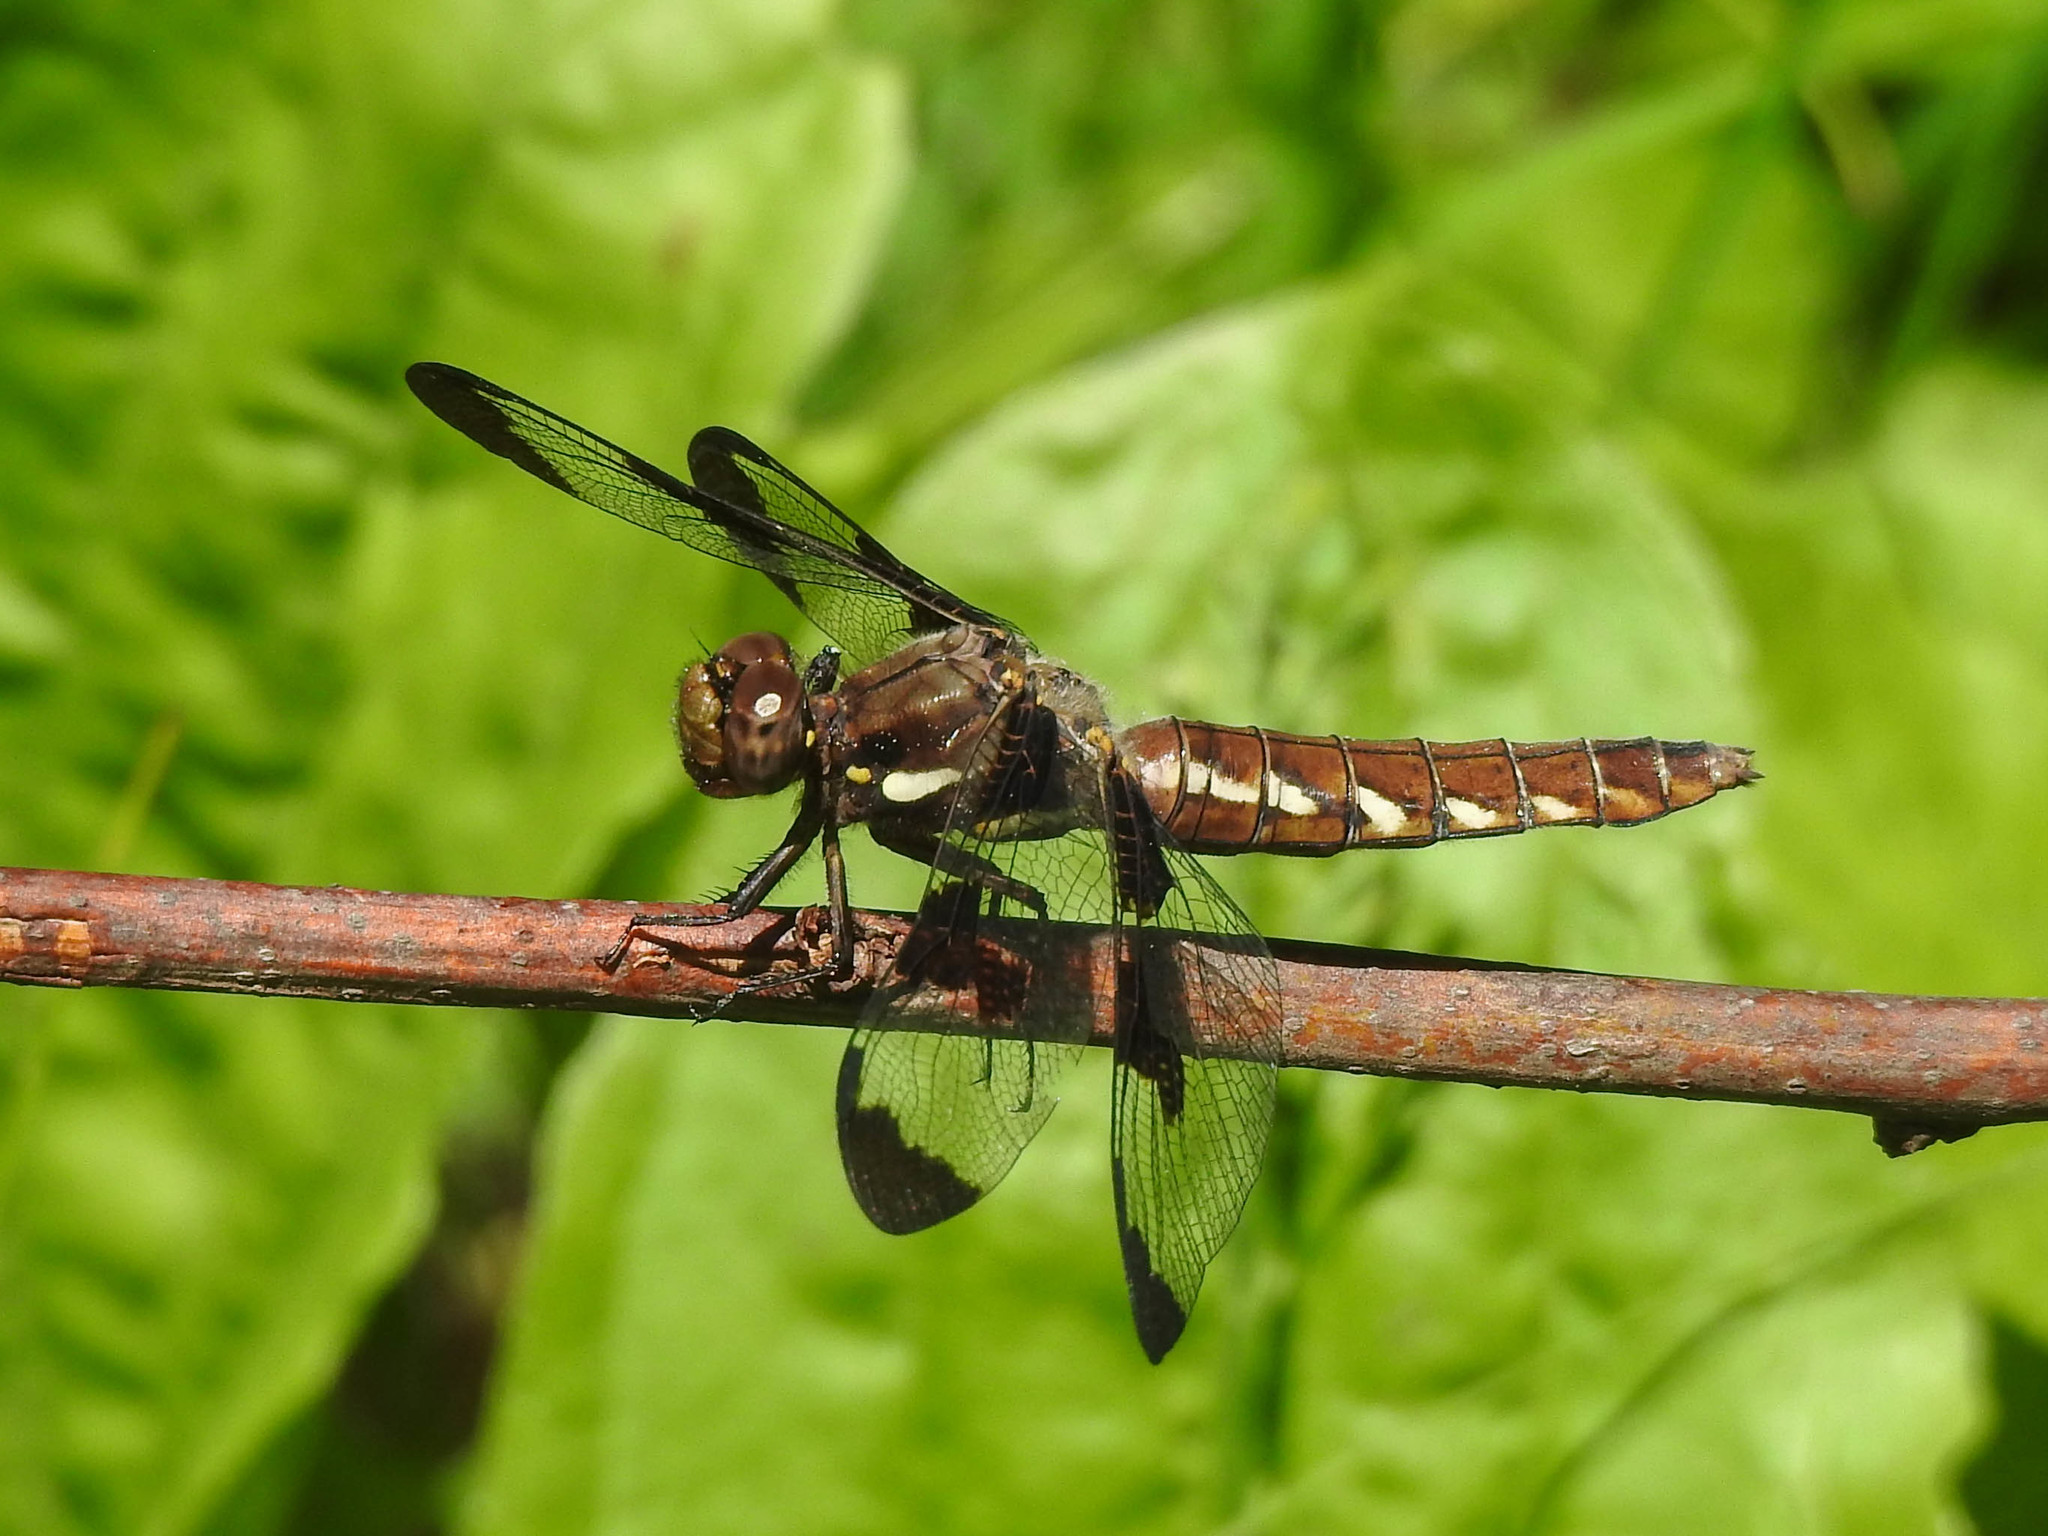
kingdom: Animalia
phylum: Arthropoda
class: Insecta
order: Odonata
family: Libellulidae
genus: Plathemis
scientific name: Plathemis lydia
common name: Common whitetail
